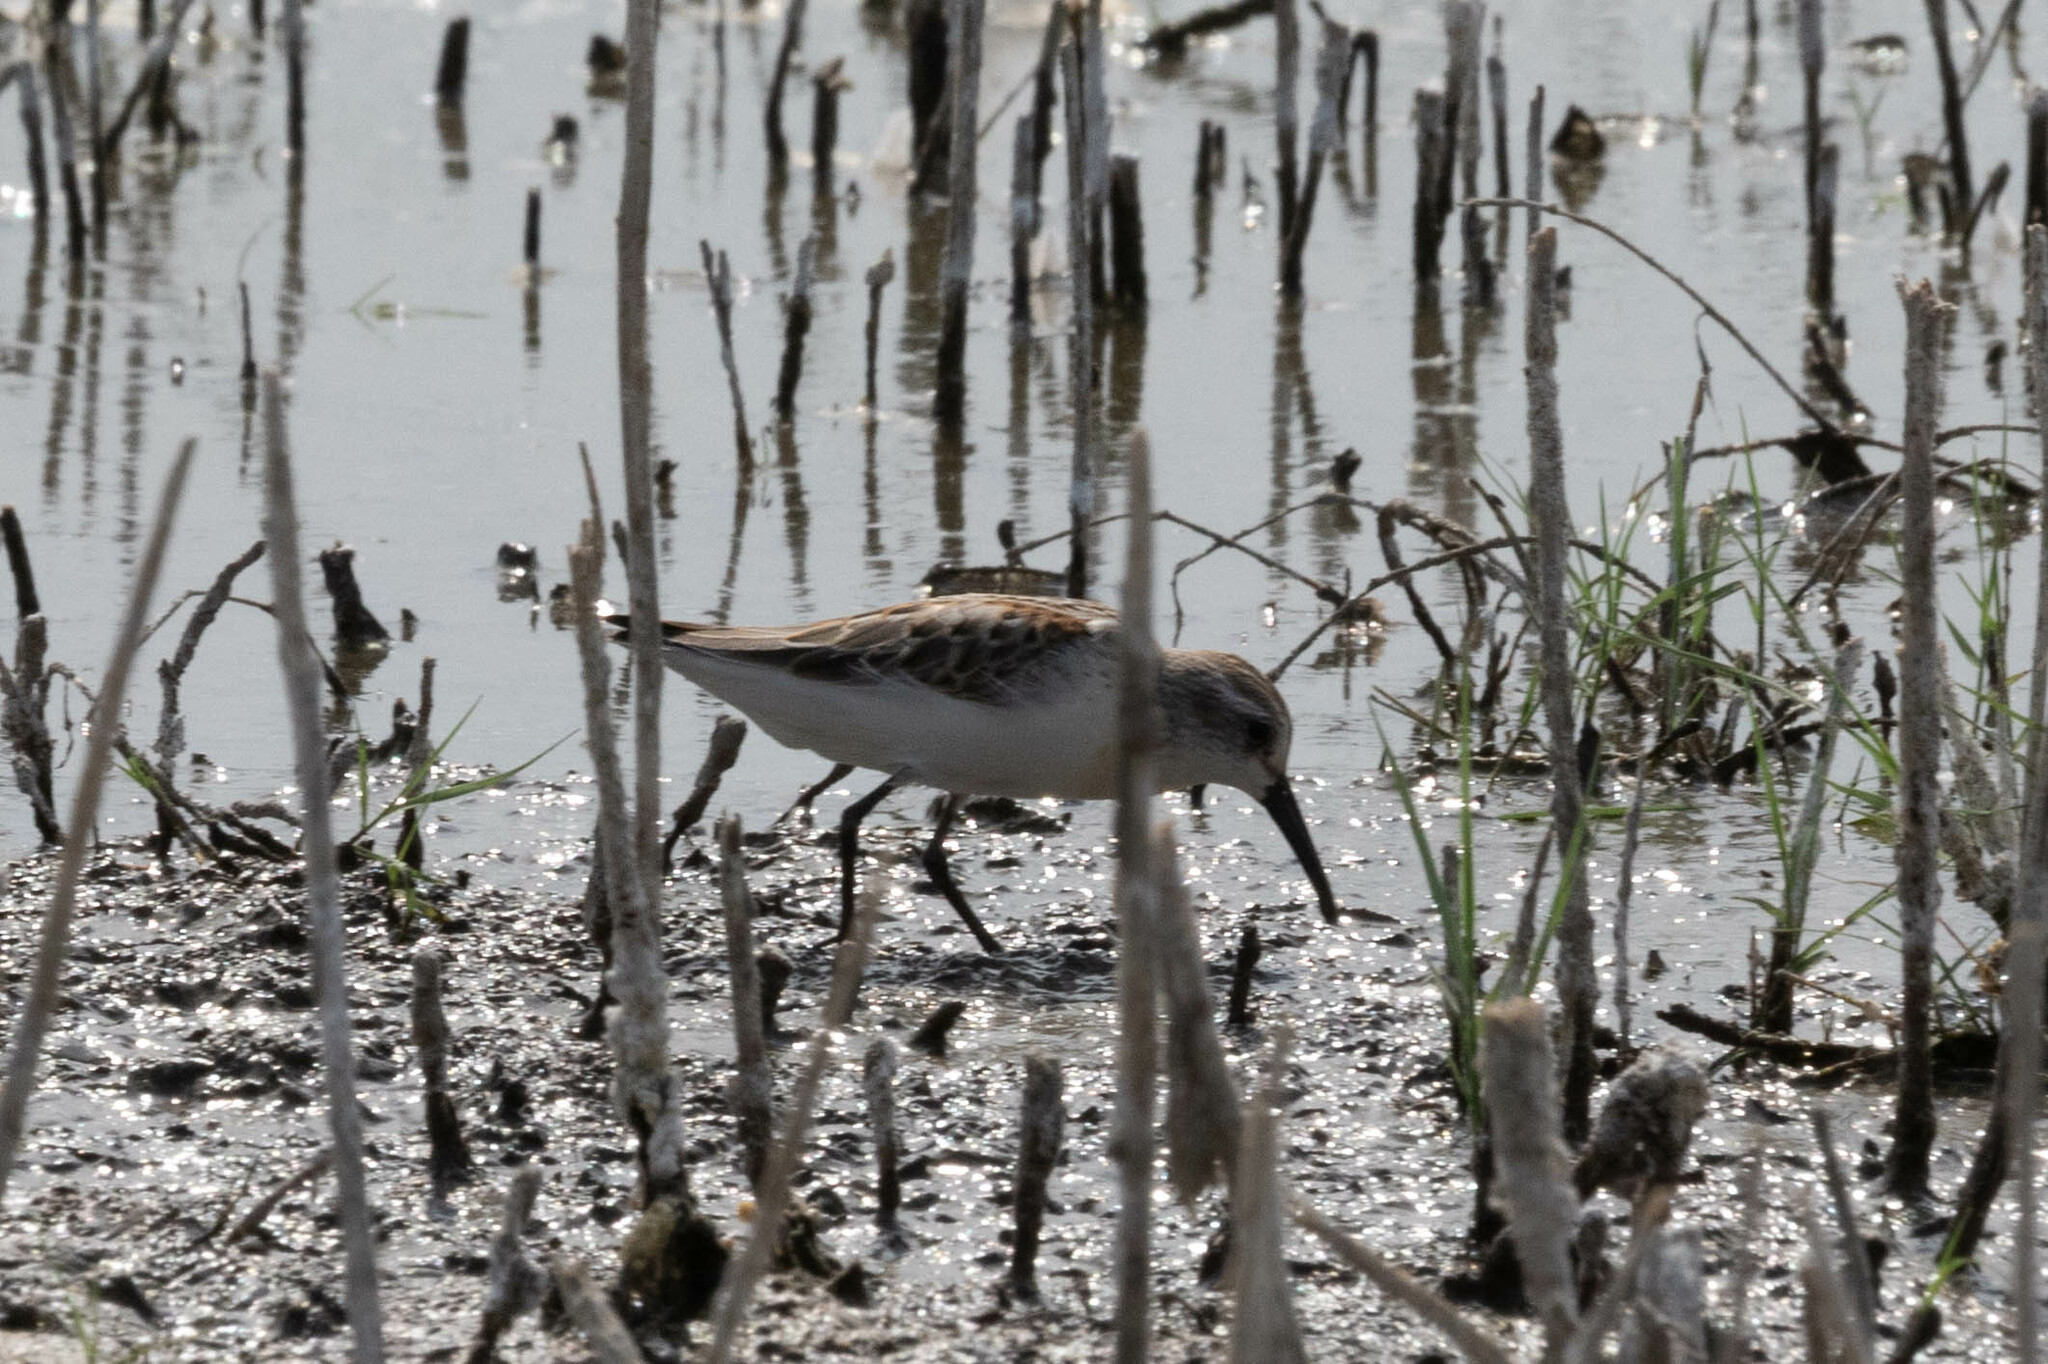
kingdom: Animalia
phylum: Chordata
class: Aves
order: Charadriiformes
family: Scolopacidae
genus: Calidris
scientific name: Calidris mauri
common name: Western sandpiper
